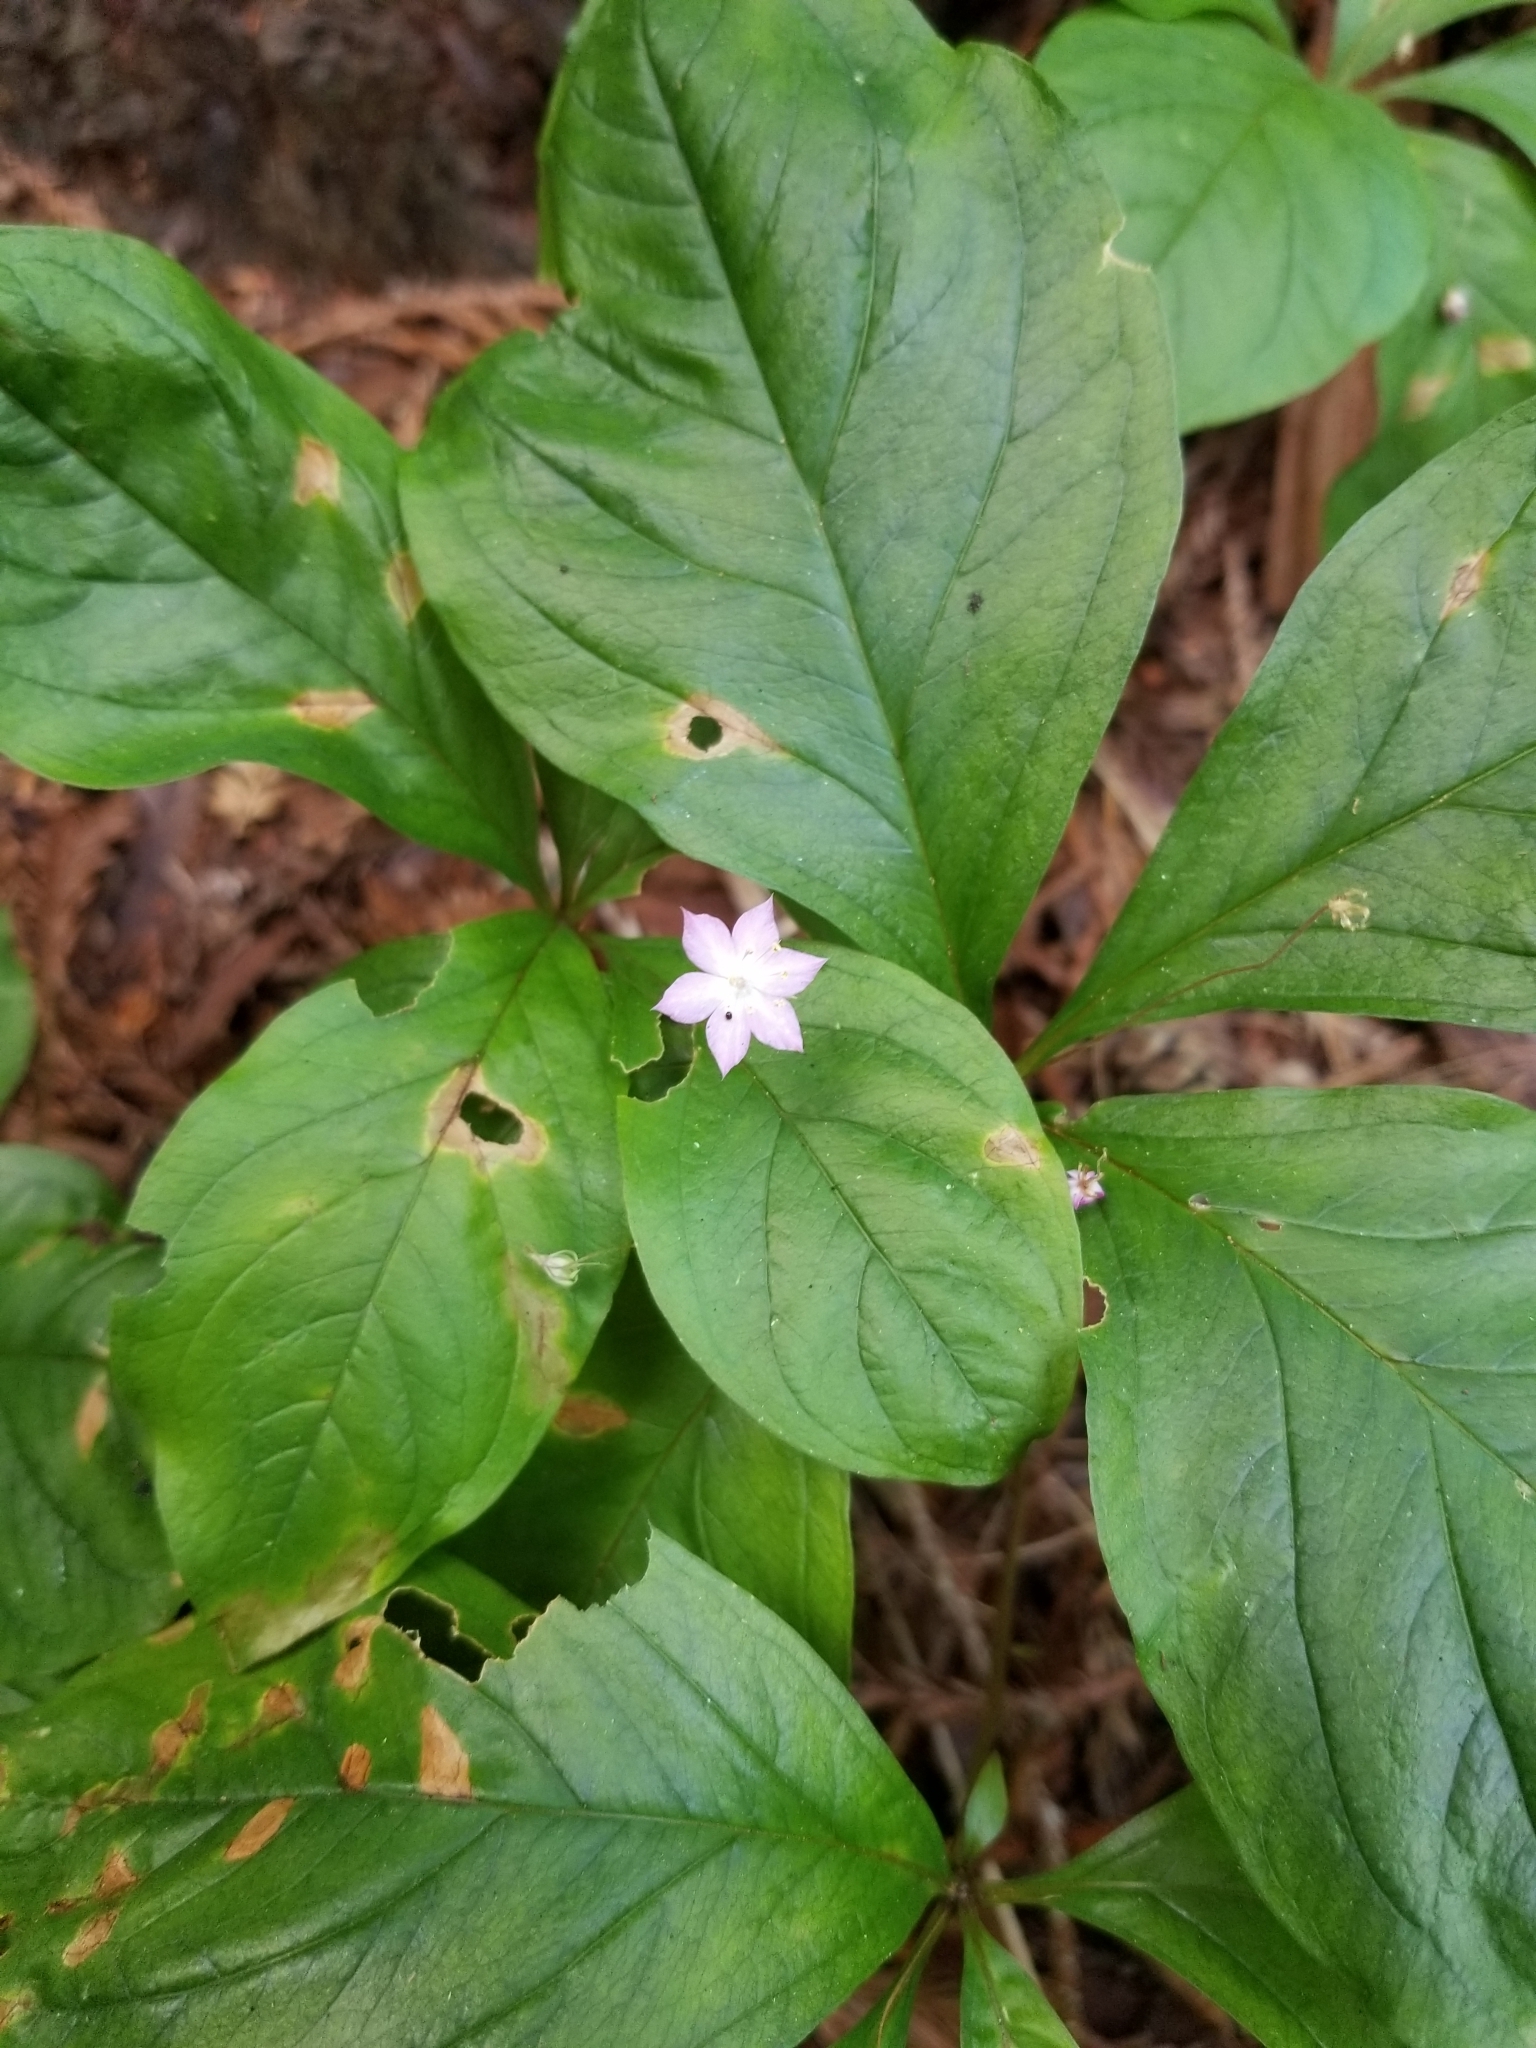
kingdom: Plantae
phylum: Tracheophyta
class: Magnoliopsida
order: Ericales
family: Primulaceae
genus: Lysimachia
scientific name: Lysimachia latifolia
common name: Pacific starflower
